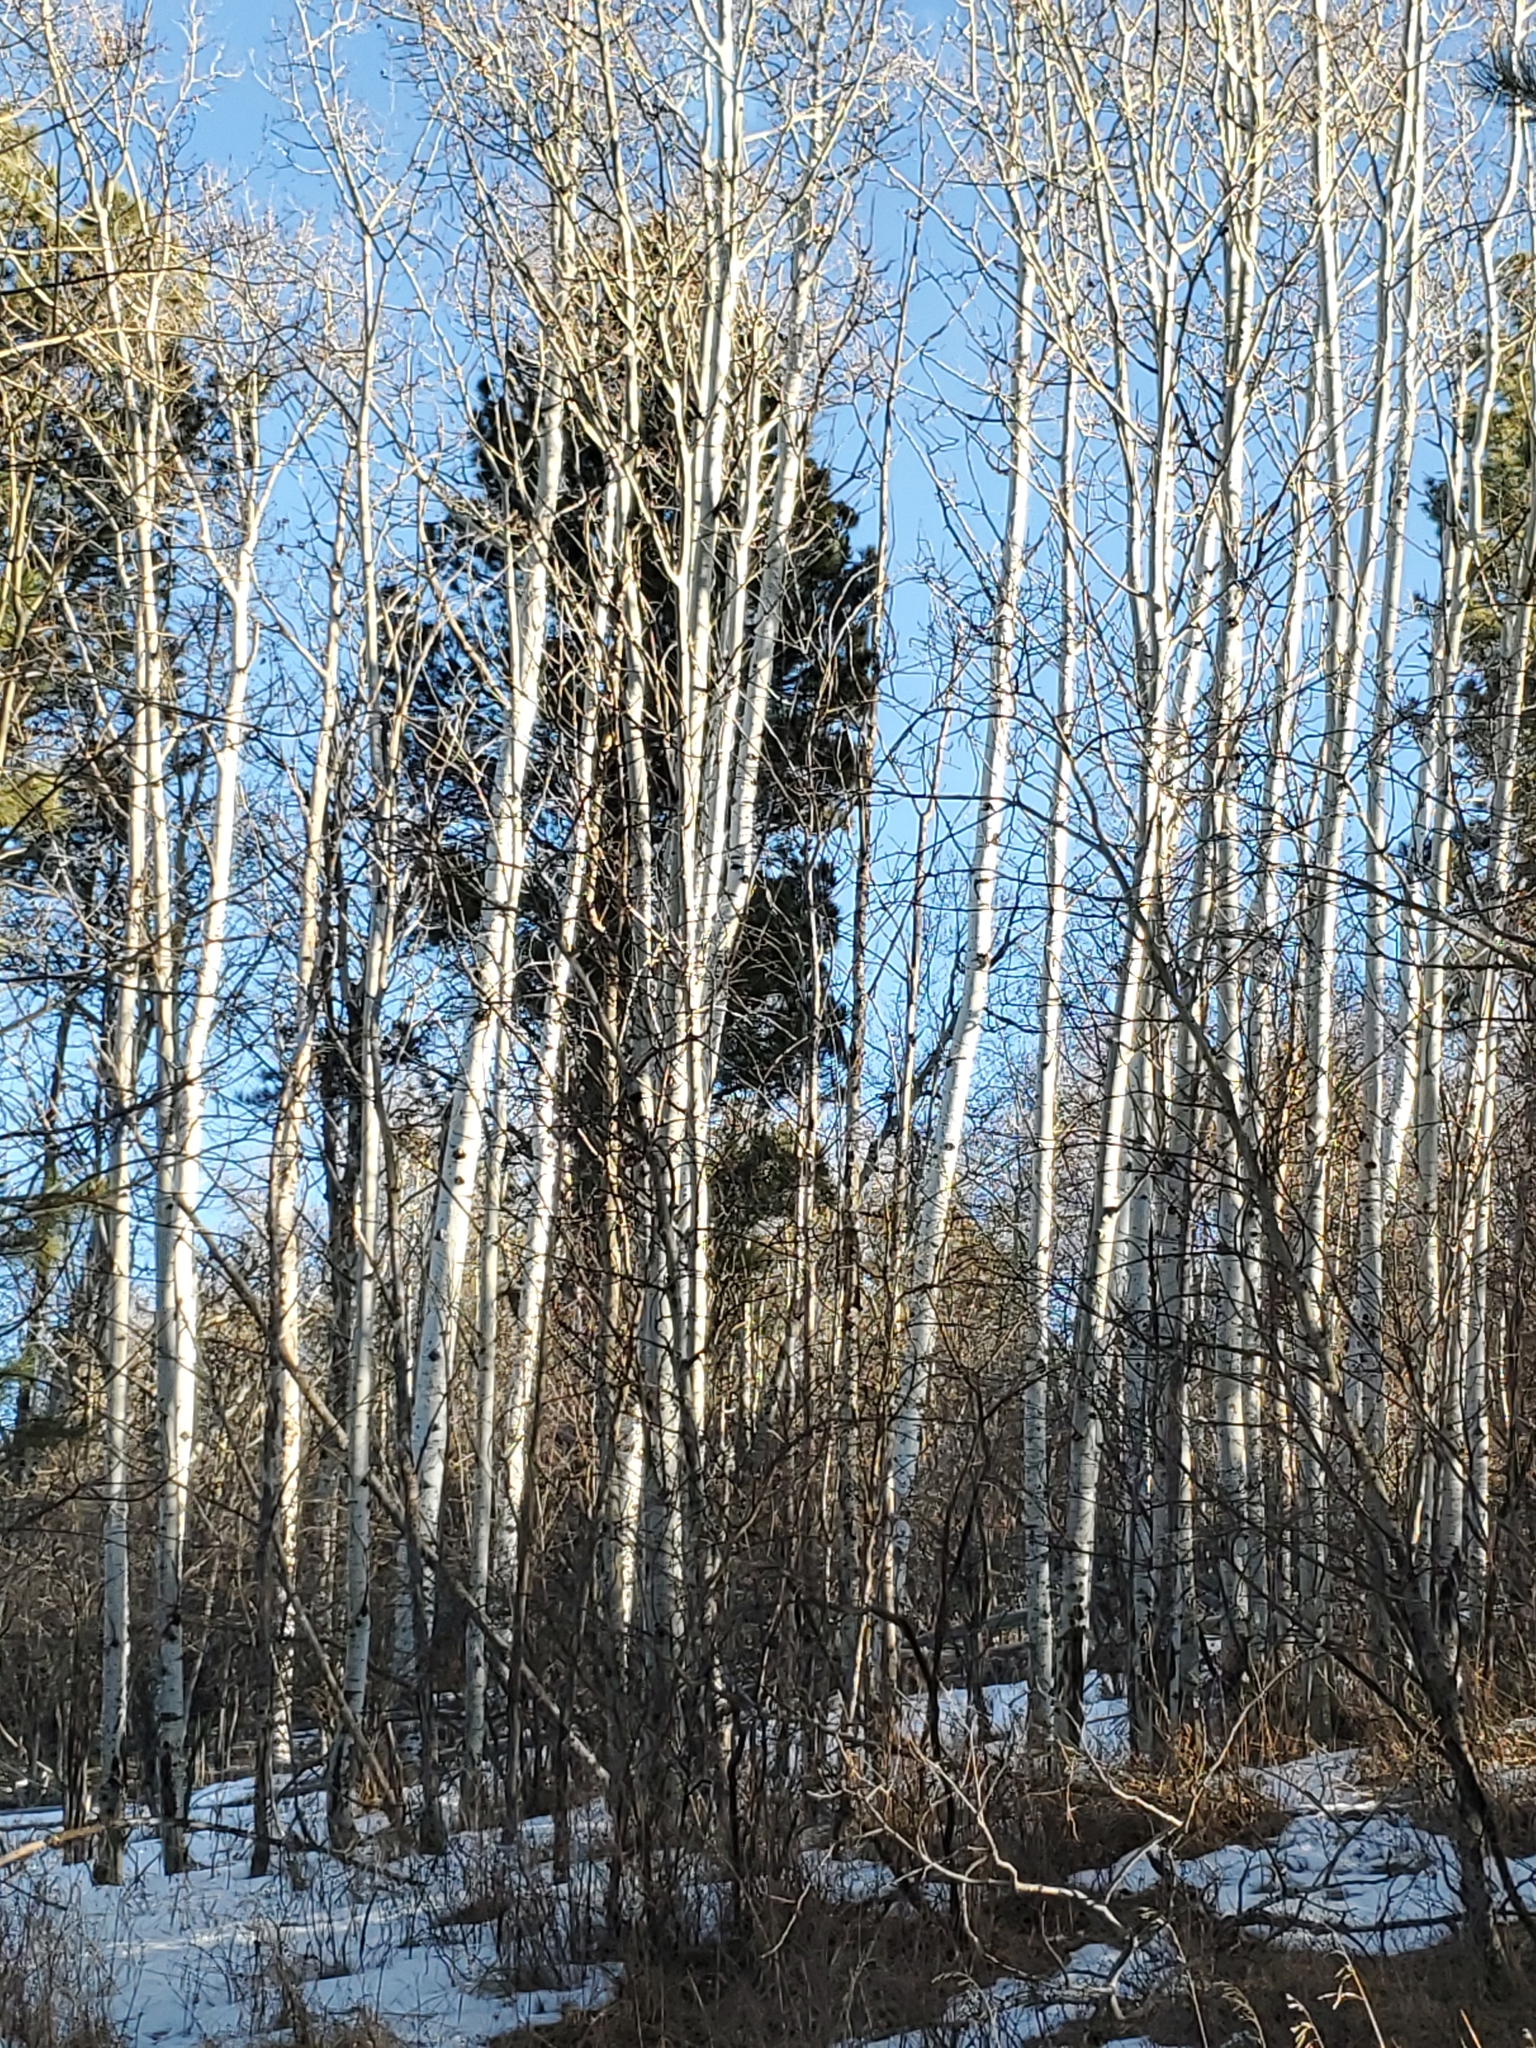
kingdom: Plantae
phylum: Tracheophyta
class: Magnoliopsida
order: Malpighiales
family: Salicaceae
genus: Populus
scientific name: Populus tremuloides
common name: Quaking aspen
